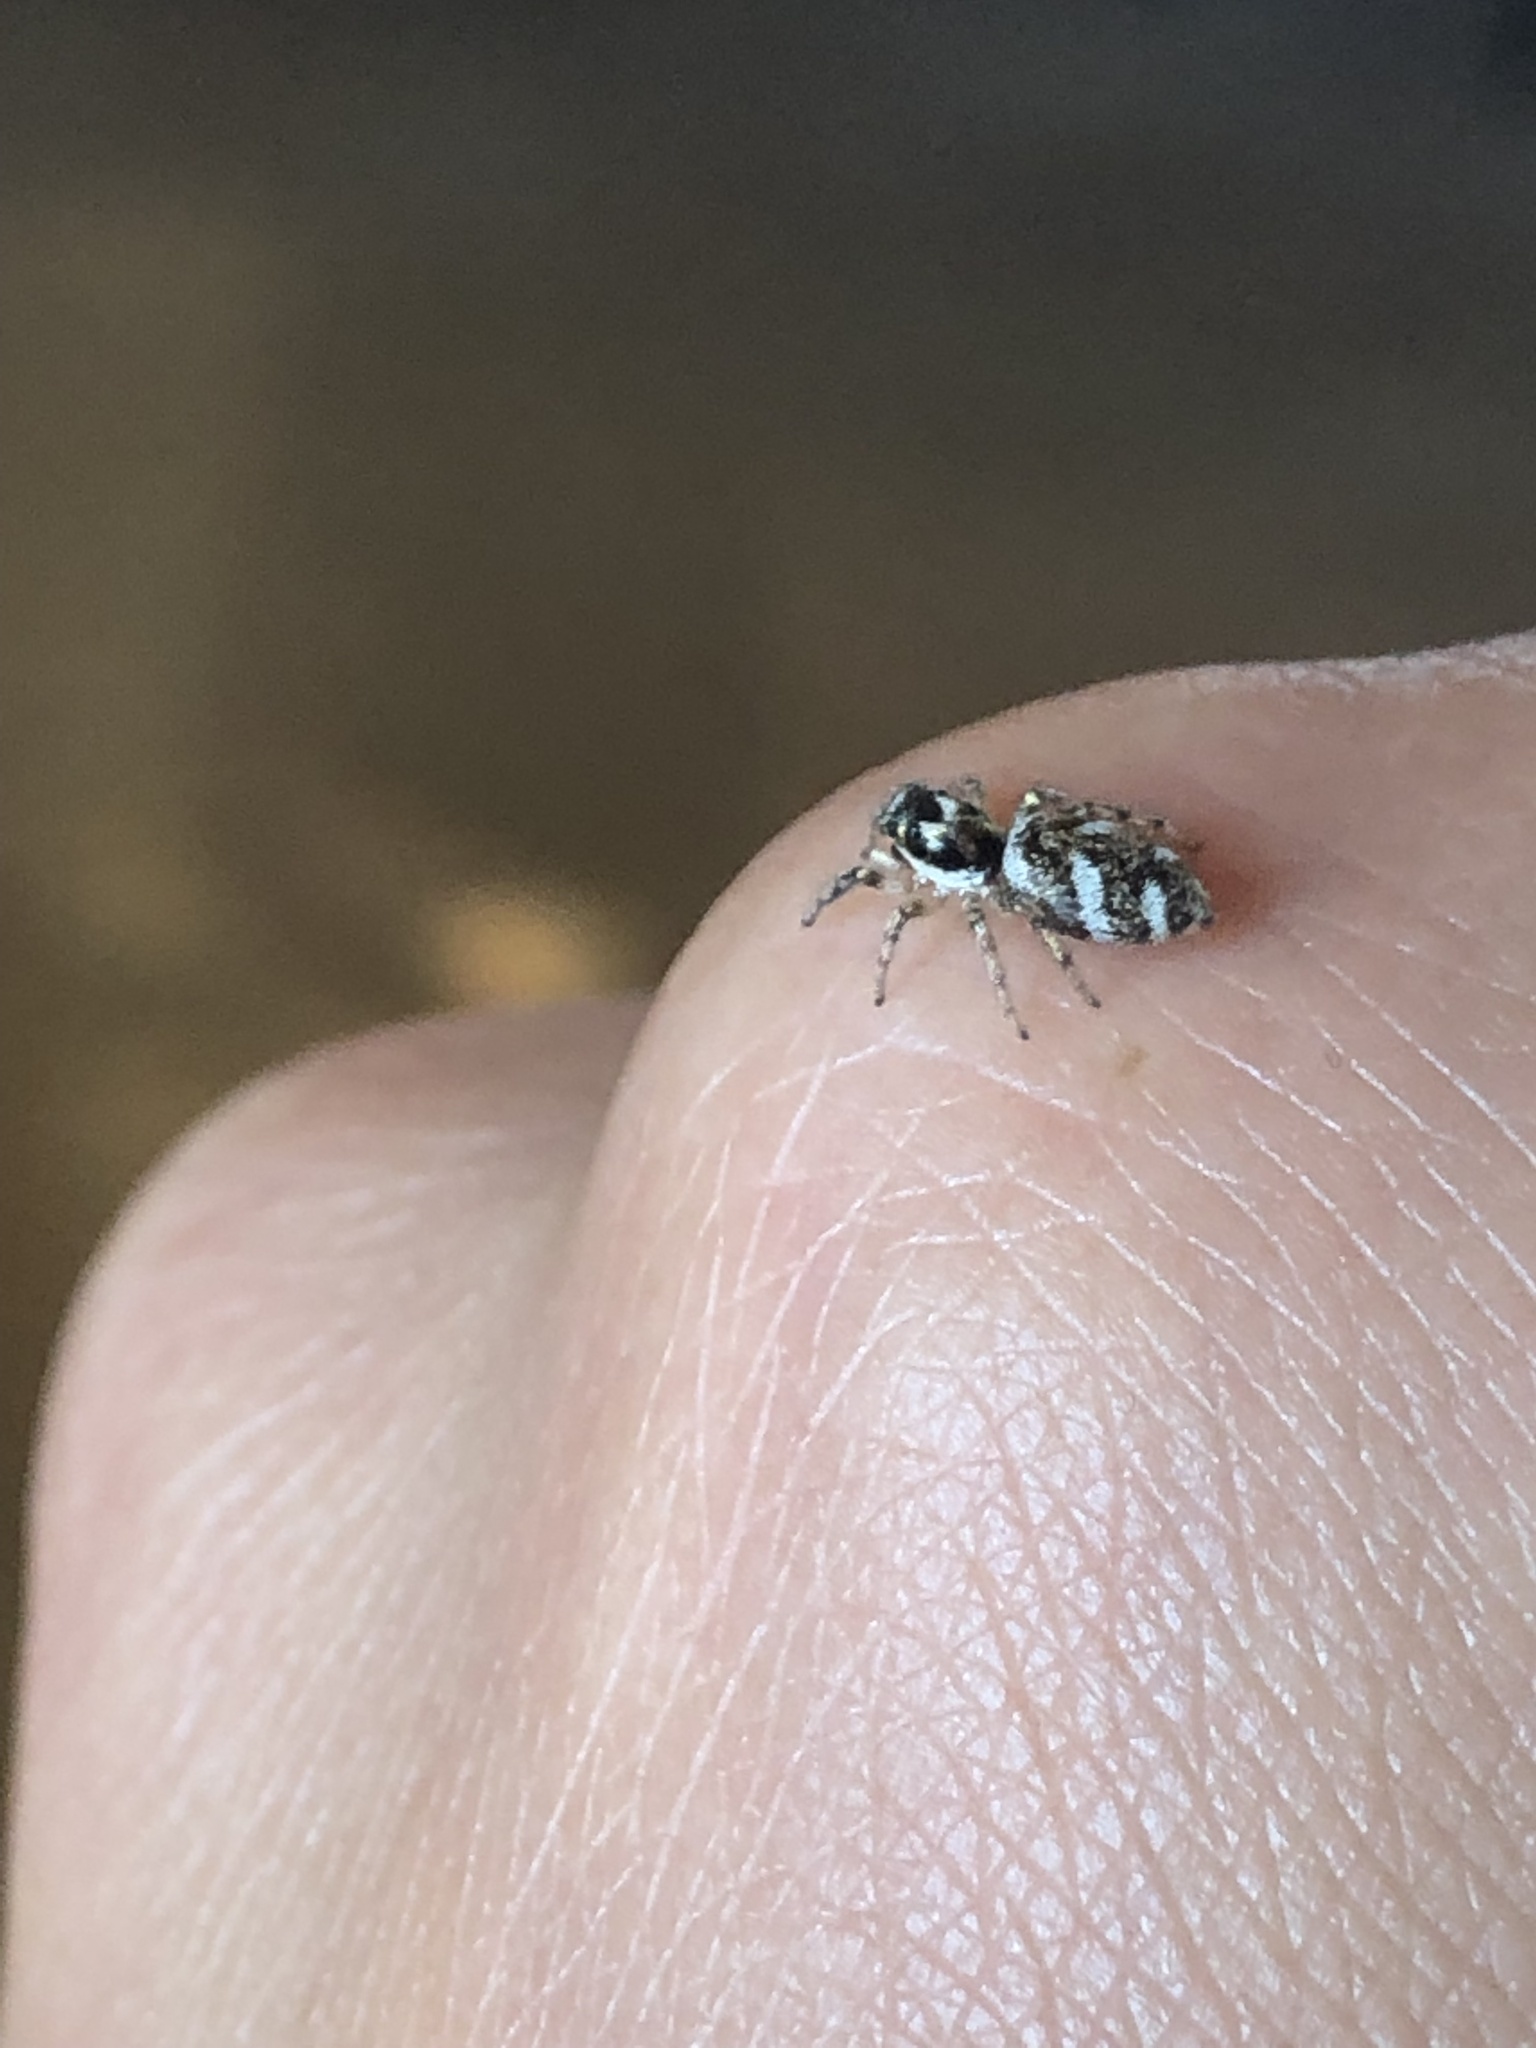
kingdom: Animalia
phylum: Arthropoda
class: Arachnida
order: Araneae
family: Salticidae
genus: Salticus
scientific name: Salticus scenicus
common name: Zebra jumper
